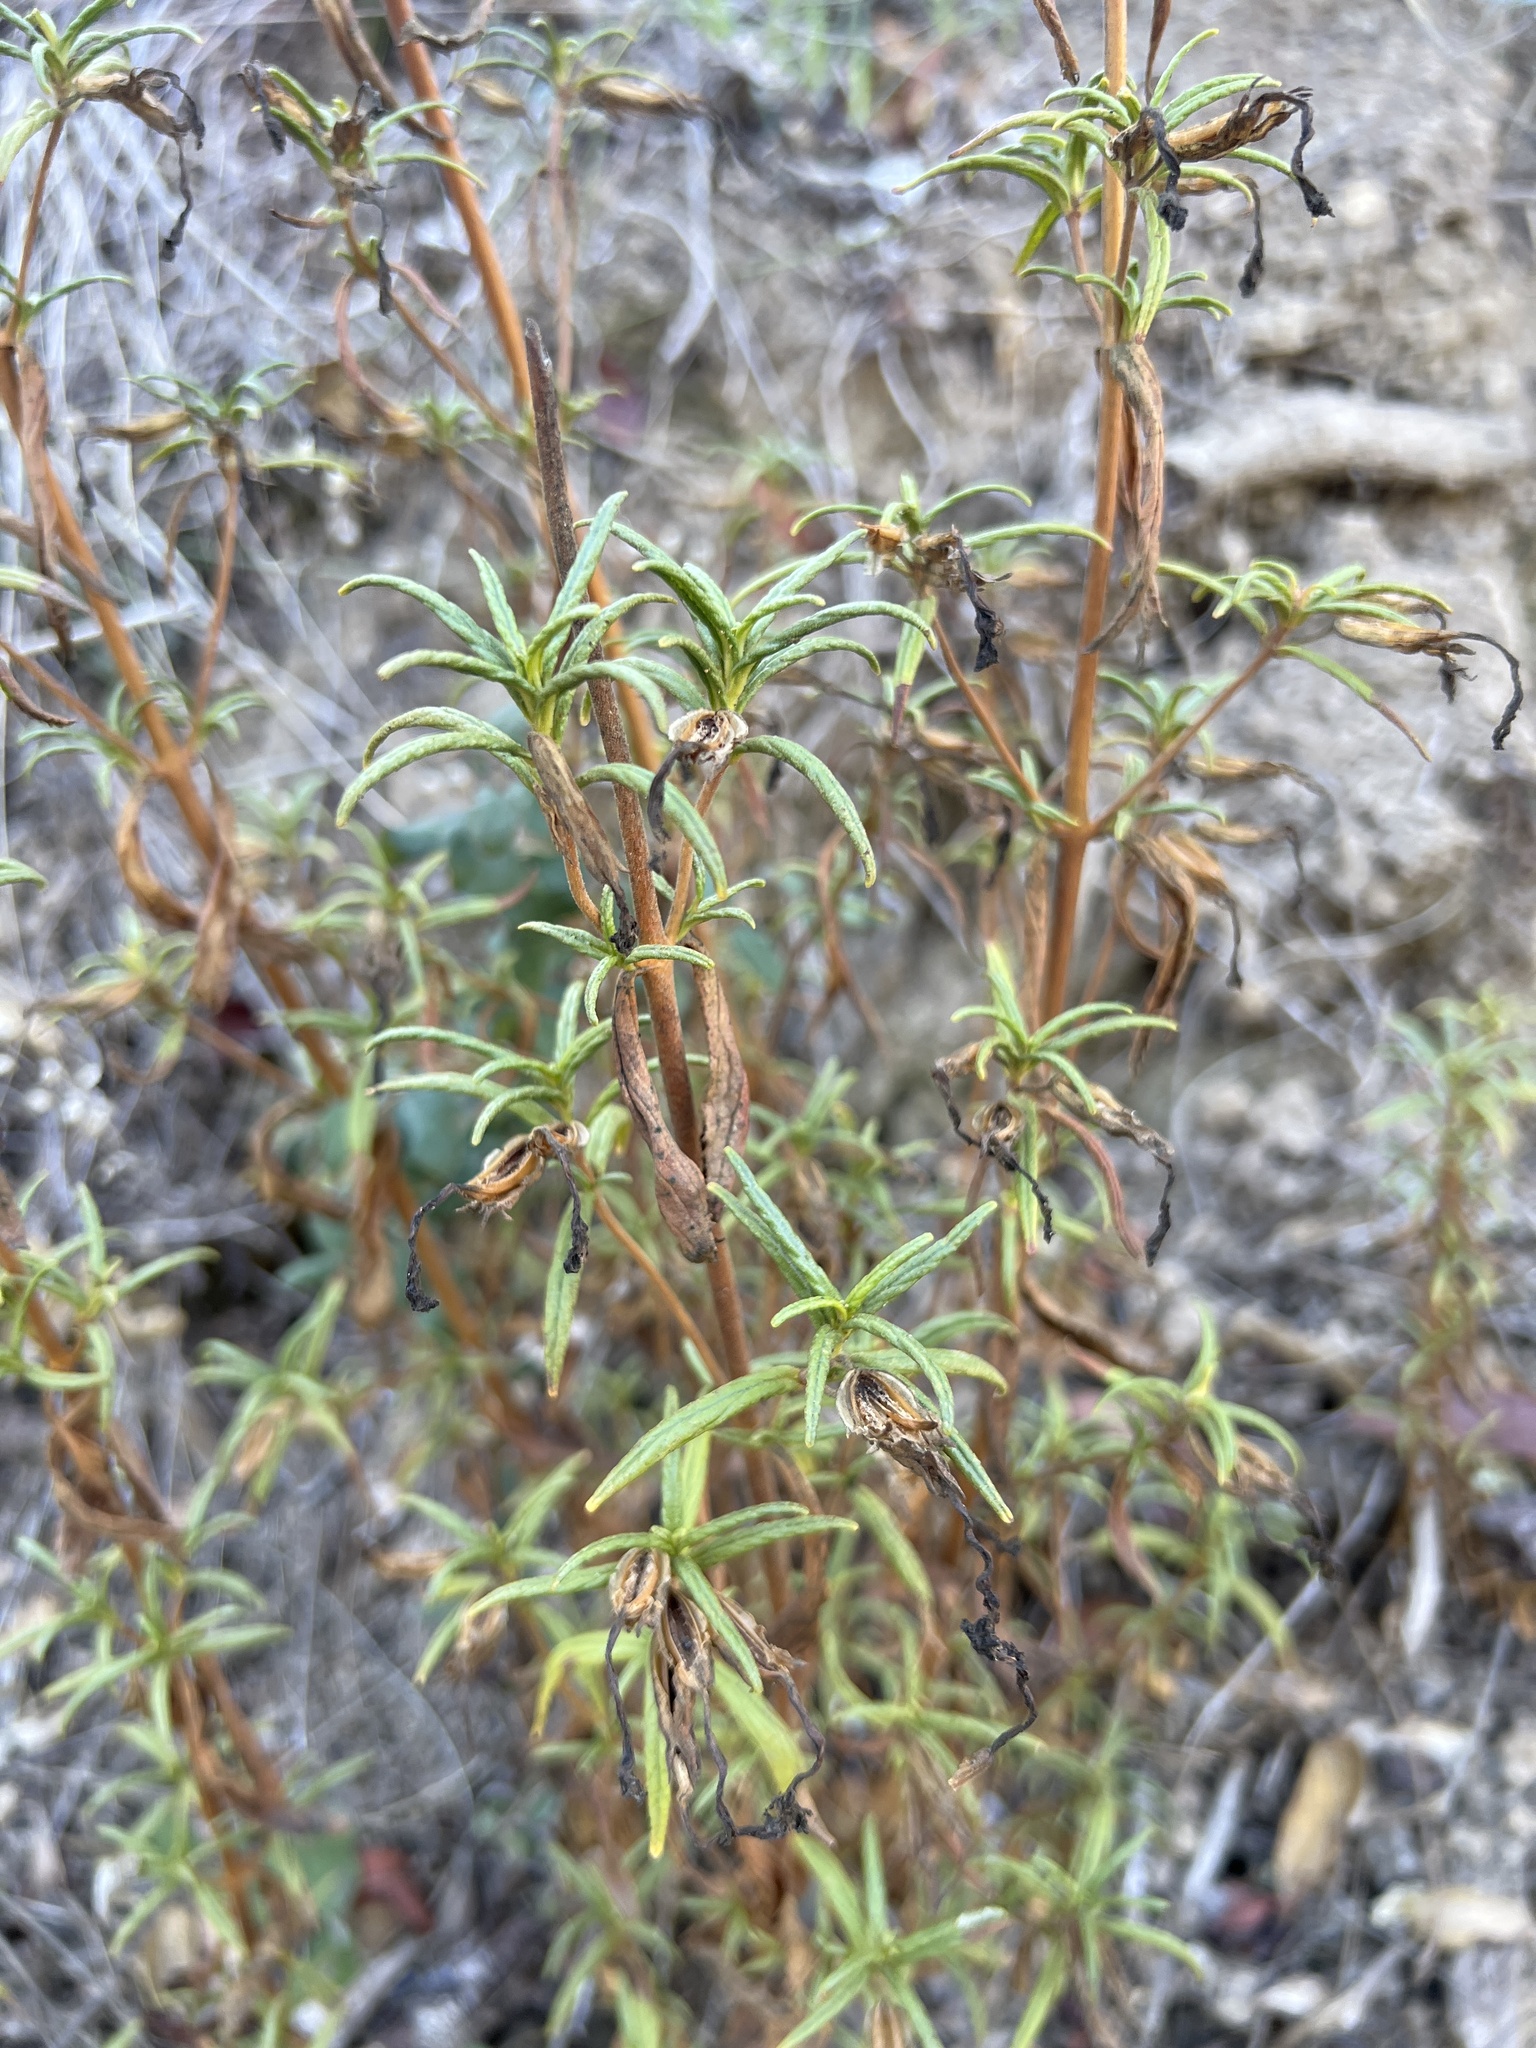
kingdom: Plantae
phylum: Tracheophyta
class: Magnoliopsida
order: Lamiales
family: Phrymaceae
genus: Diplacus
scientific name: Diplacus aurantiacus
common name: Bush monkey-flower
